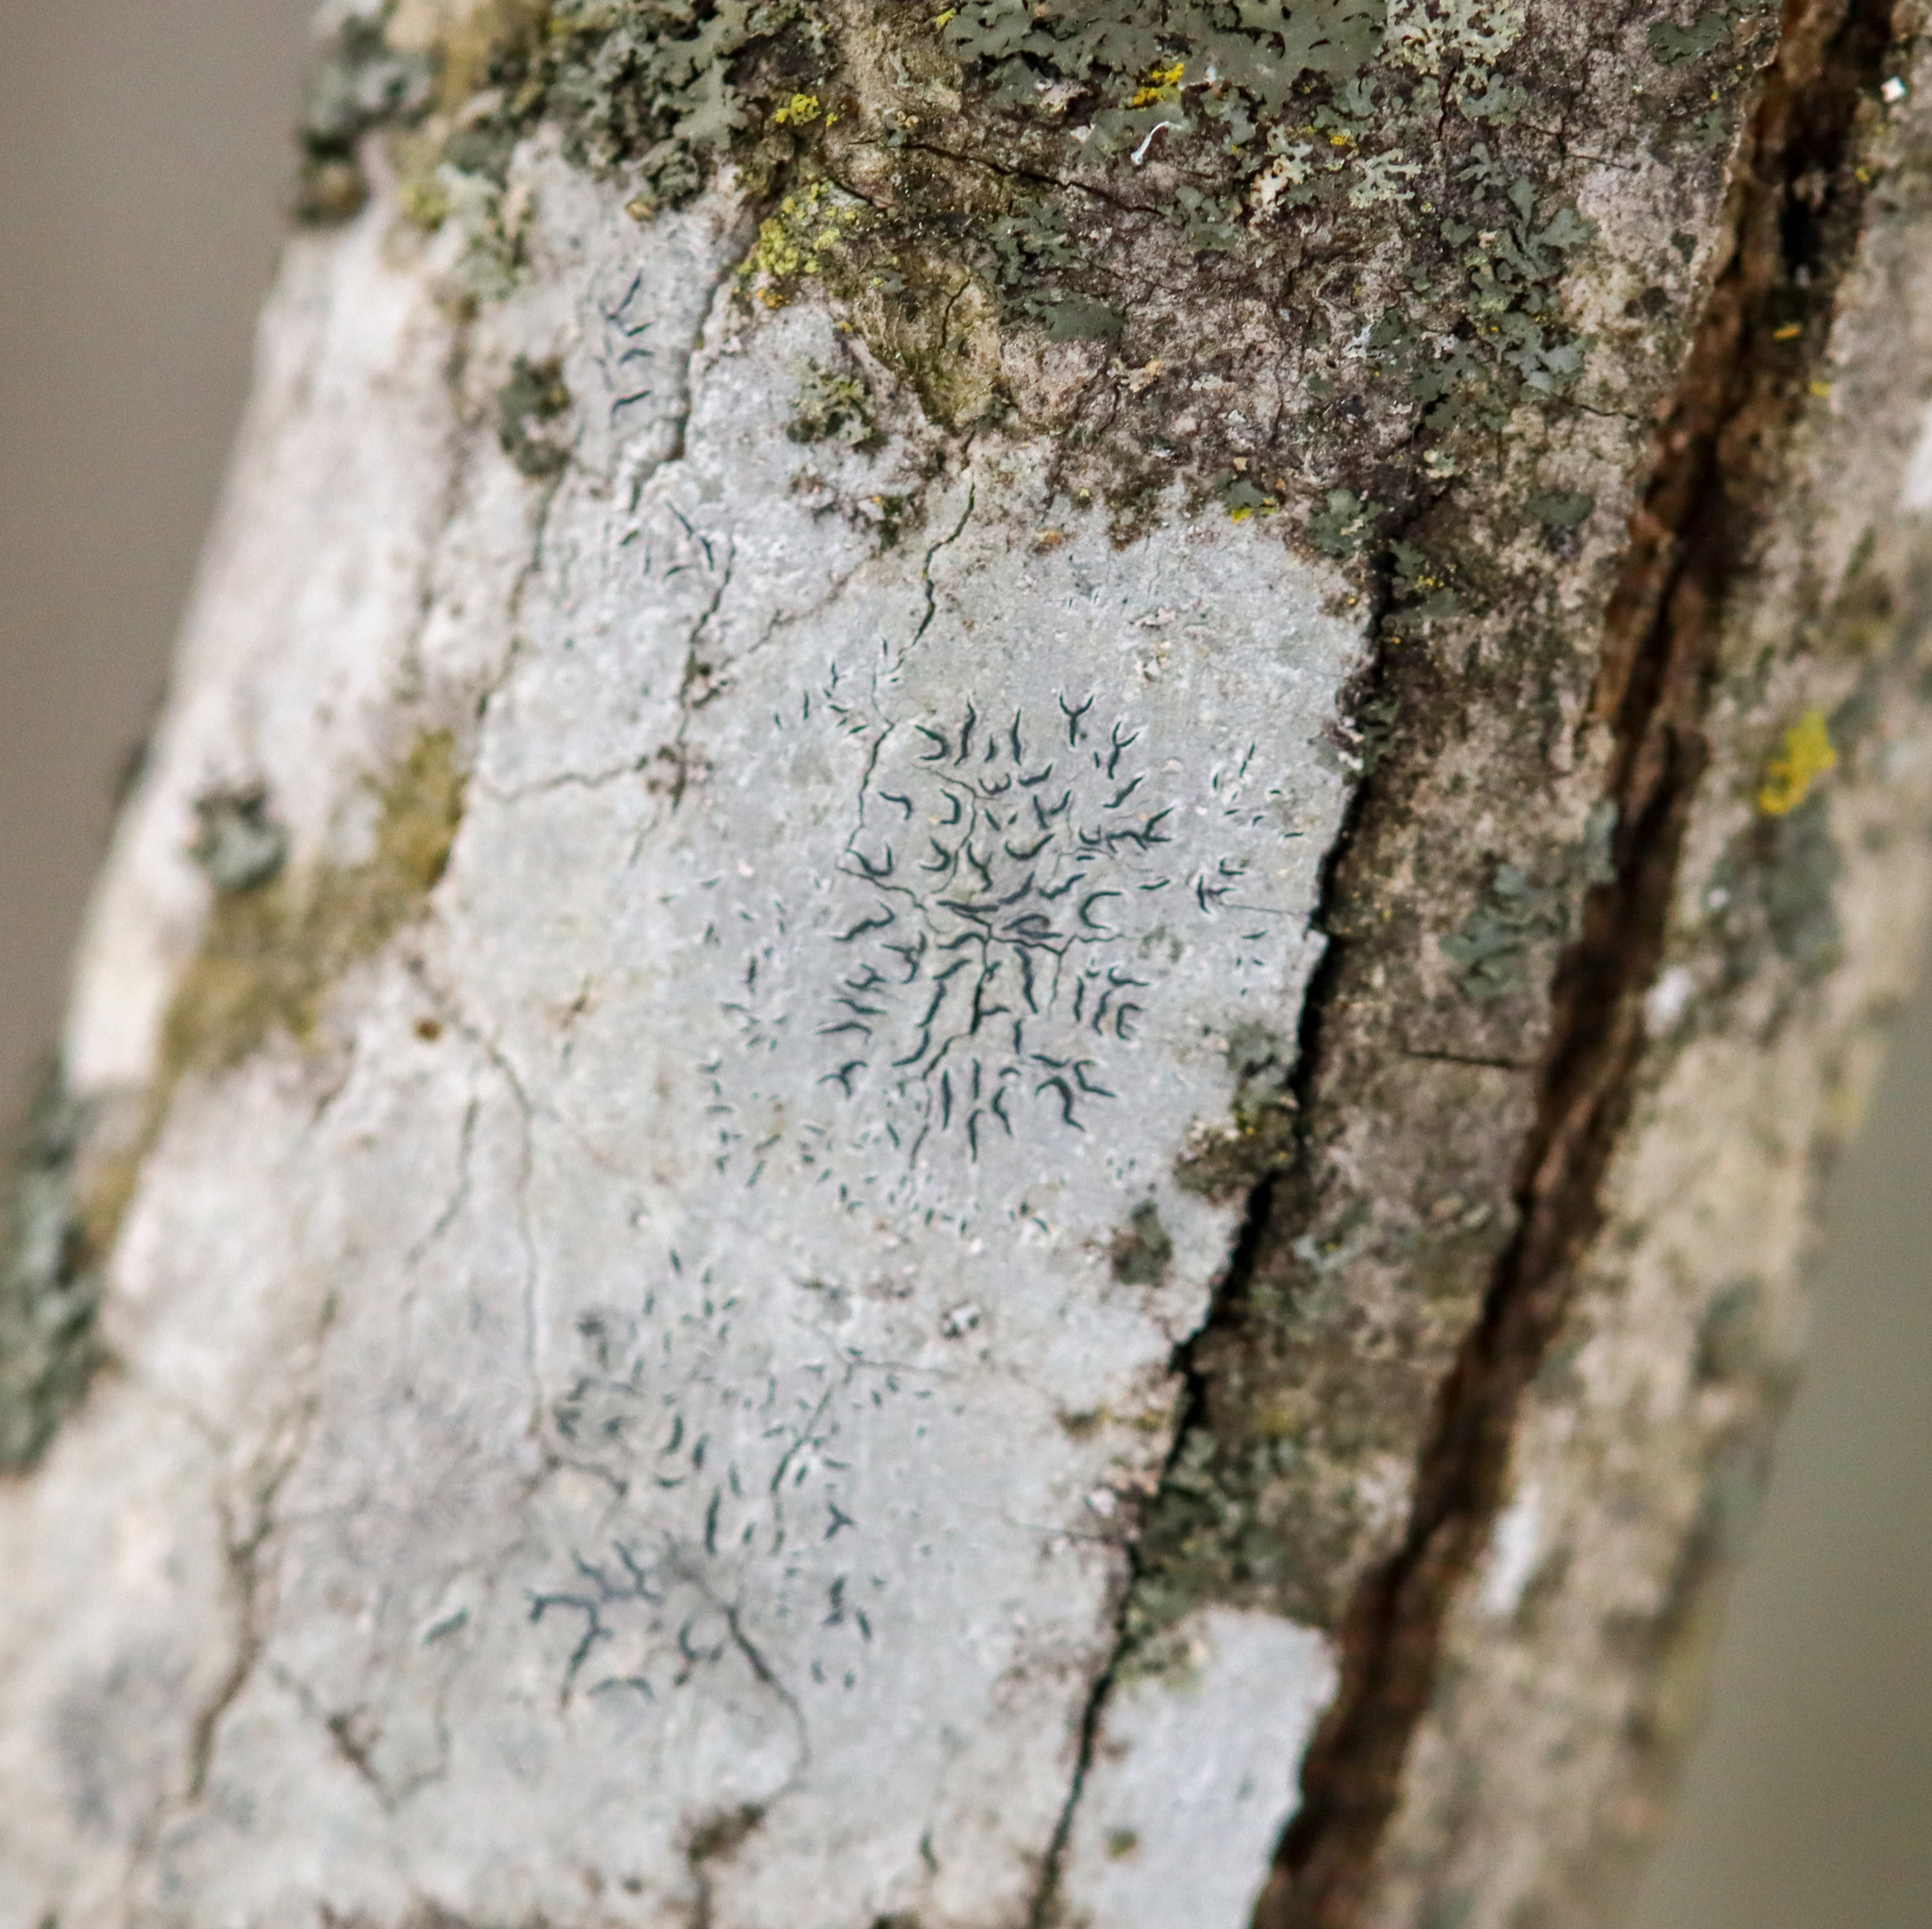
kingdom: Fungi
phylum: Ascomycota
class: Lecanoromycetes
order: Ostropales
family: Graphidaceae
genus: Graphis
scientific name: Graphis scripta
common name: Script lichen
